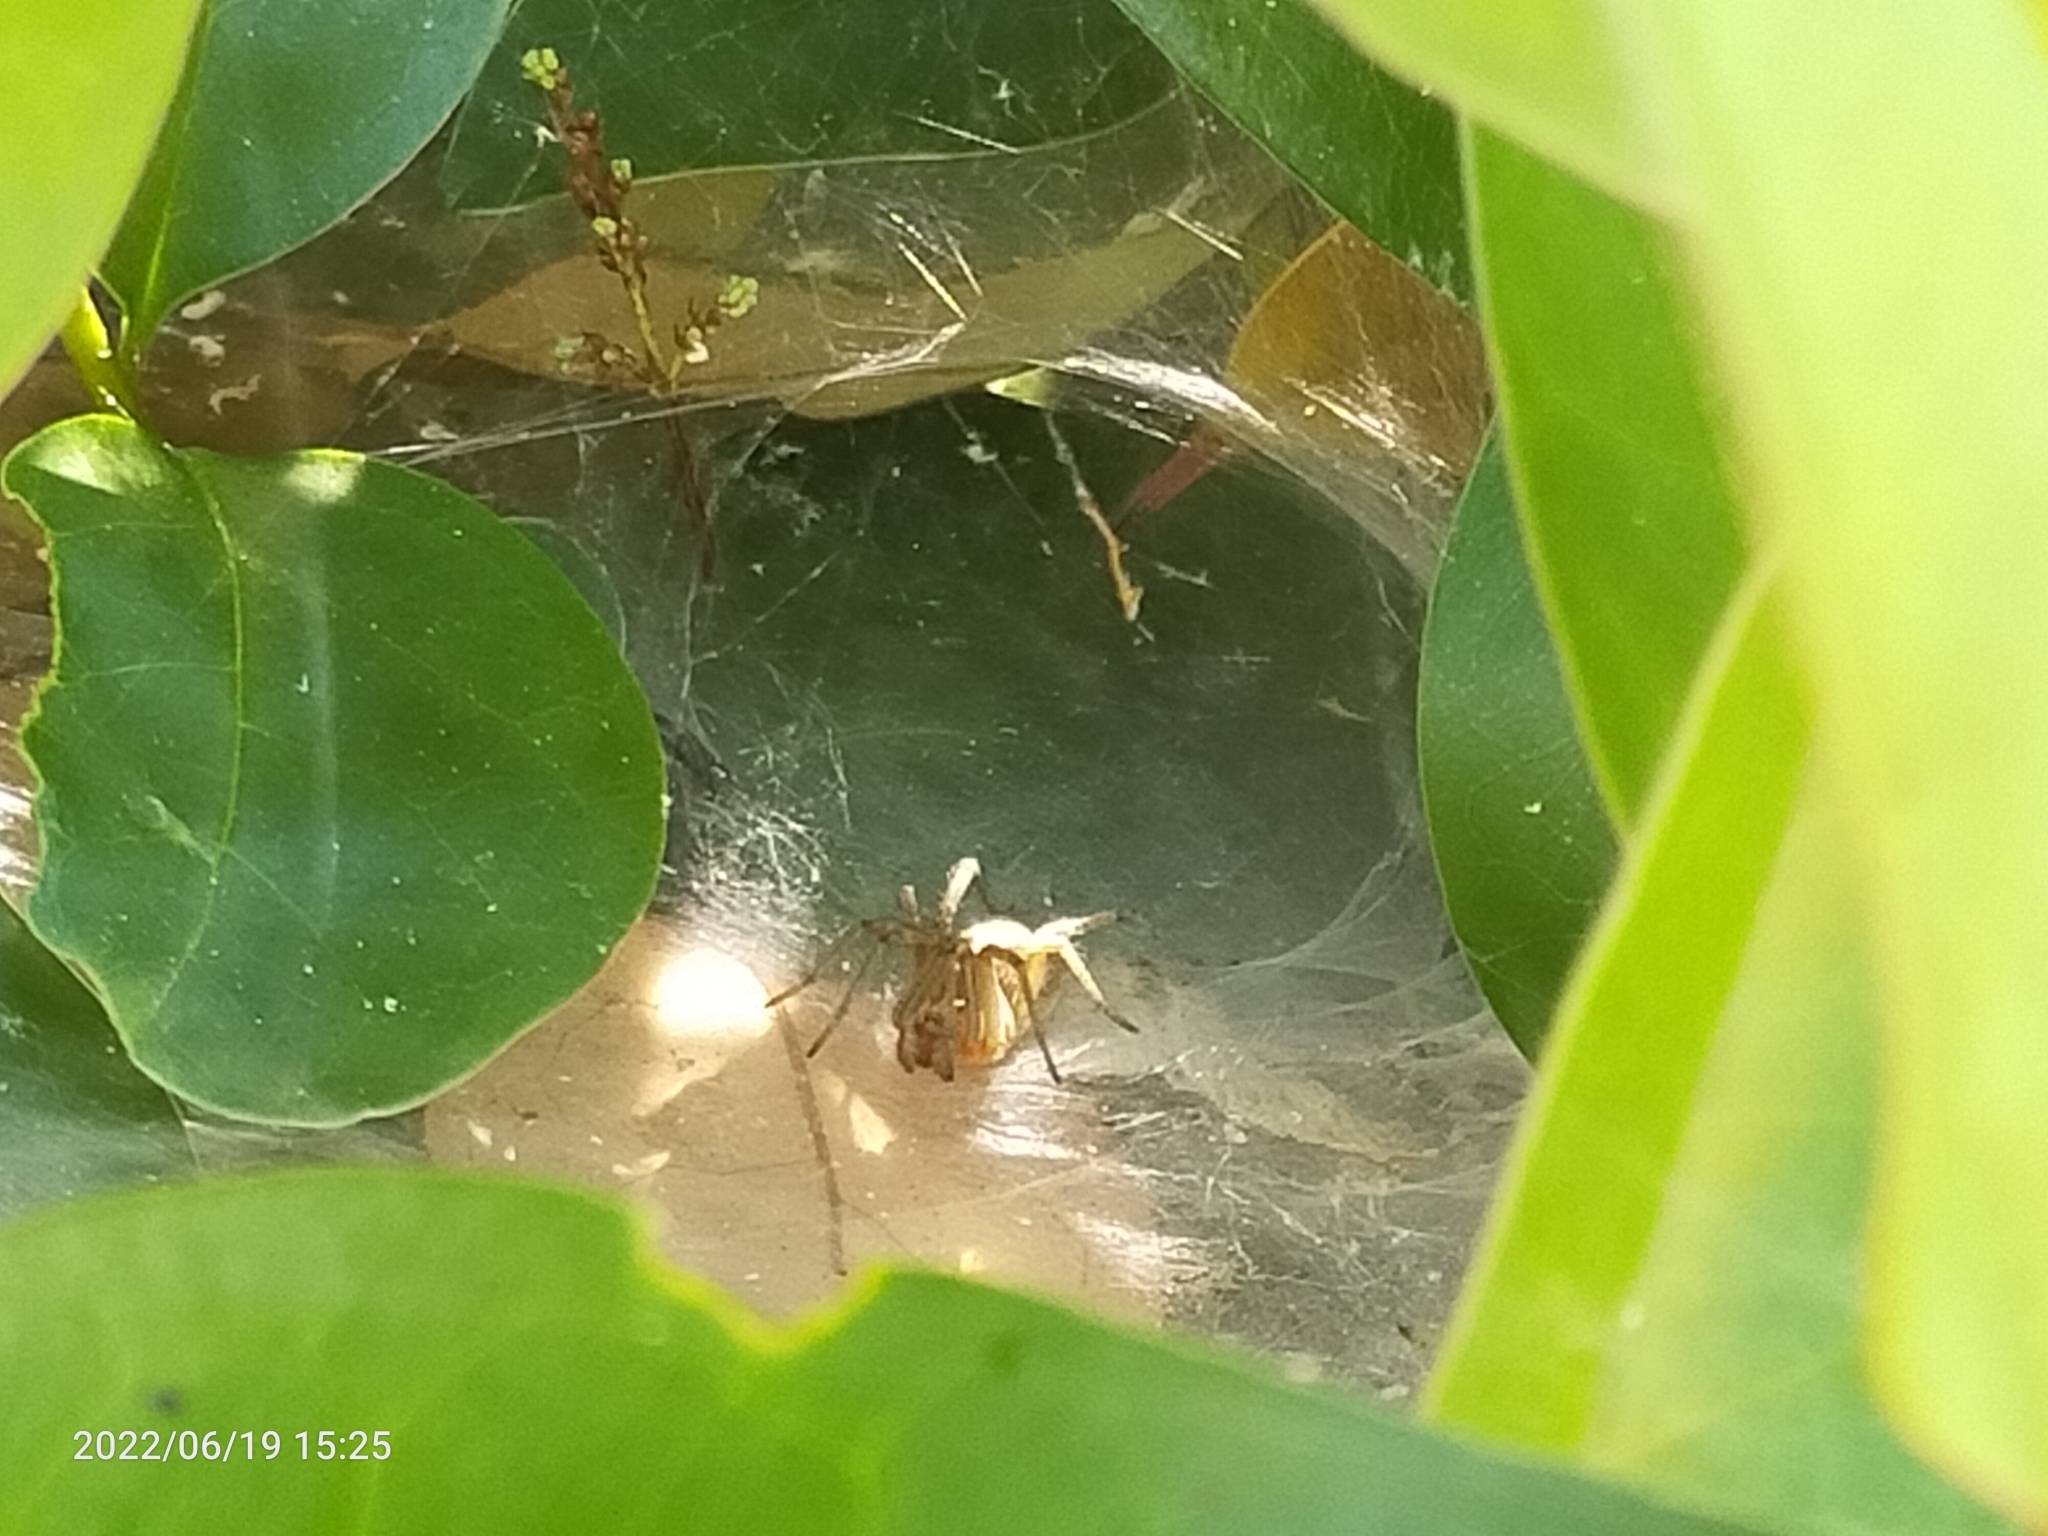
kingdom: Animalia
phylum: Arthropoda
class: Arachnida
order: Araneae
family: Agelenidae
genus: Agelena
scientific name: Agelena labyrinthica
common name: Labyrinth spider
